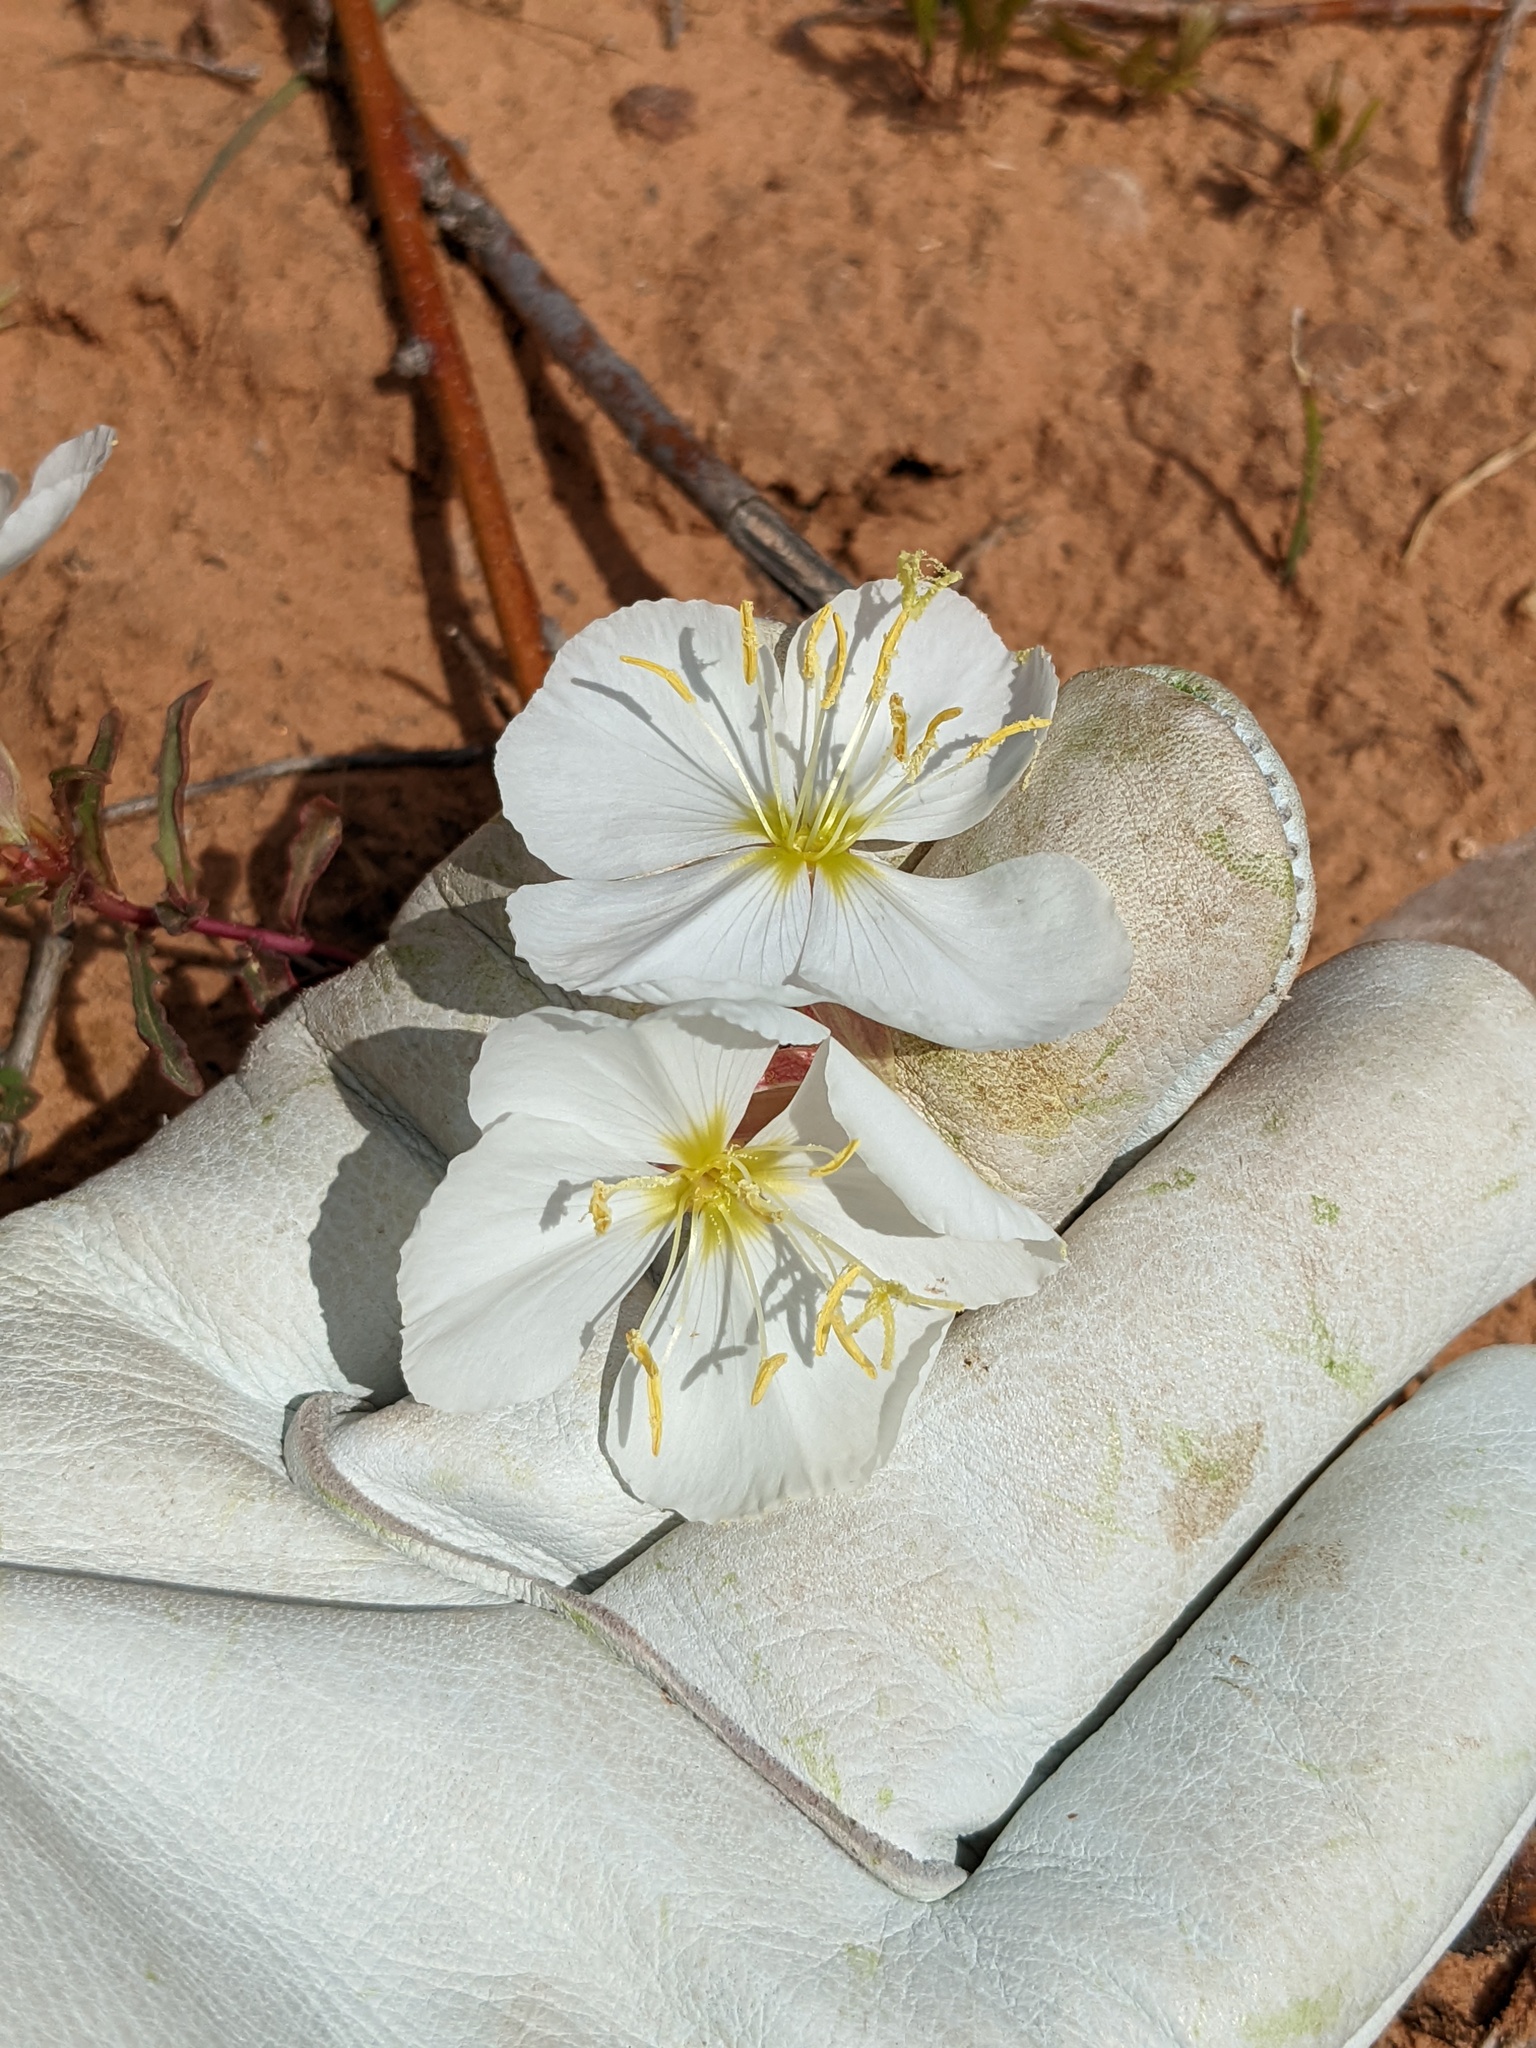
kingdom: Plantae
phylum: Tracheophyta
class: Magnoliopsida
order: Myrtales
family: Onagraceae
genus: Oenothera
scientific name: Oenothera pallida
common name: Pale evening-primrose
